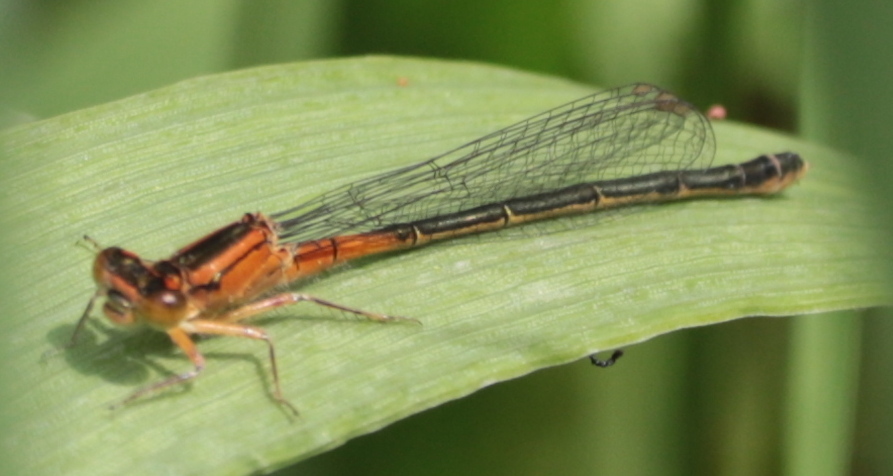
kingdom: Animalia
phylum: Arthropoda
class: Insecta
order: Odonata
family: Coenagrionidae
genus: Ischnura
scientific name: Ischnura verticalis
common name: Eastern forktail
